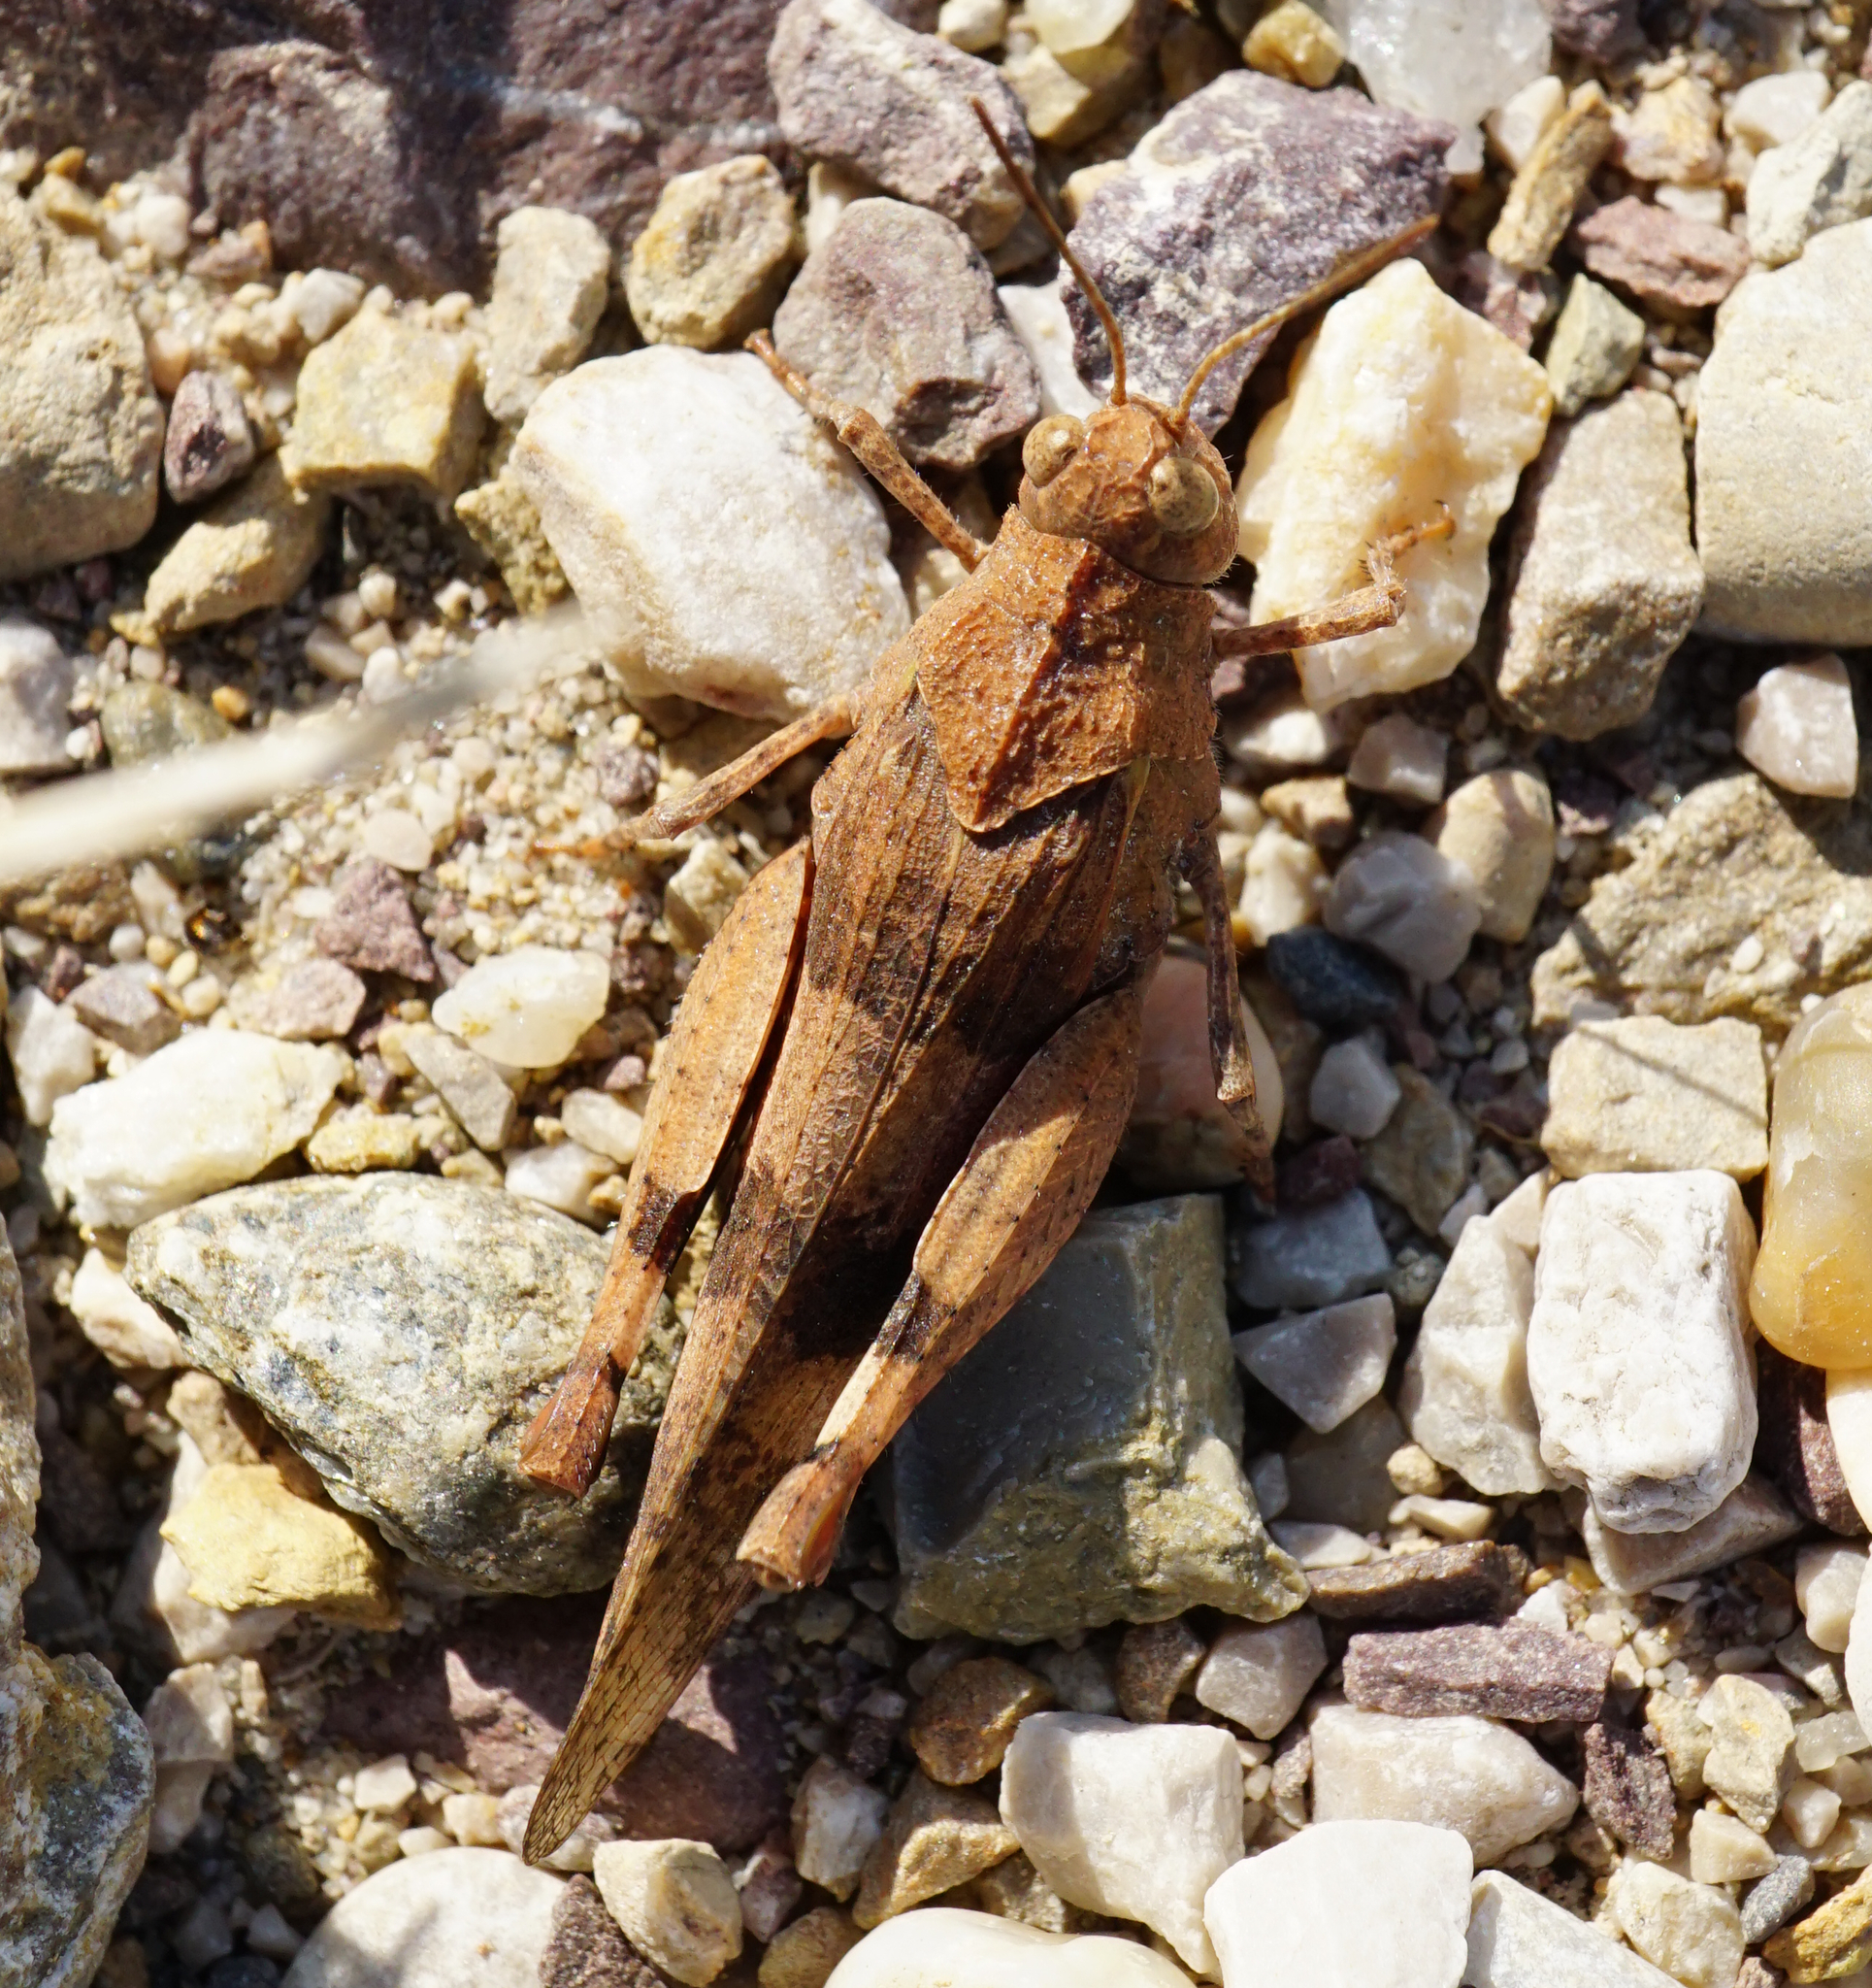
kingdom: Animalia
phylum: Arthropoda
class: Insecta
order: Orthoptera
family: Acrididae
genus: Oedipoda
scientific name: Oedipoda caerulescens
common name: Blue-winged grasshopper
